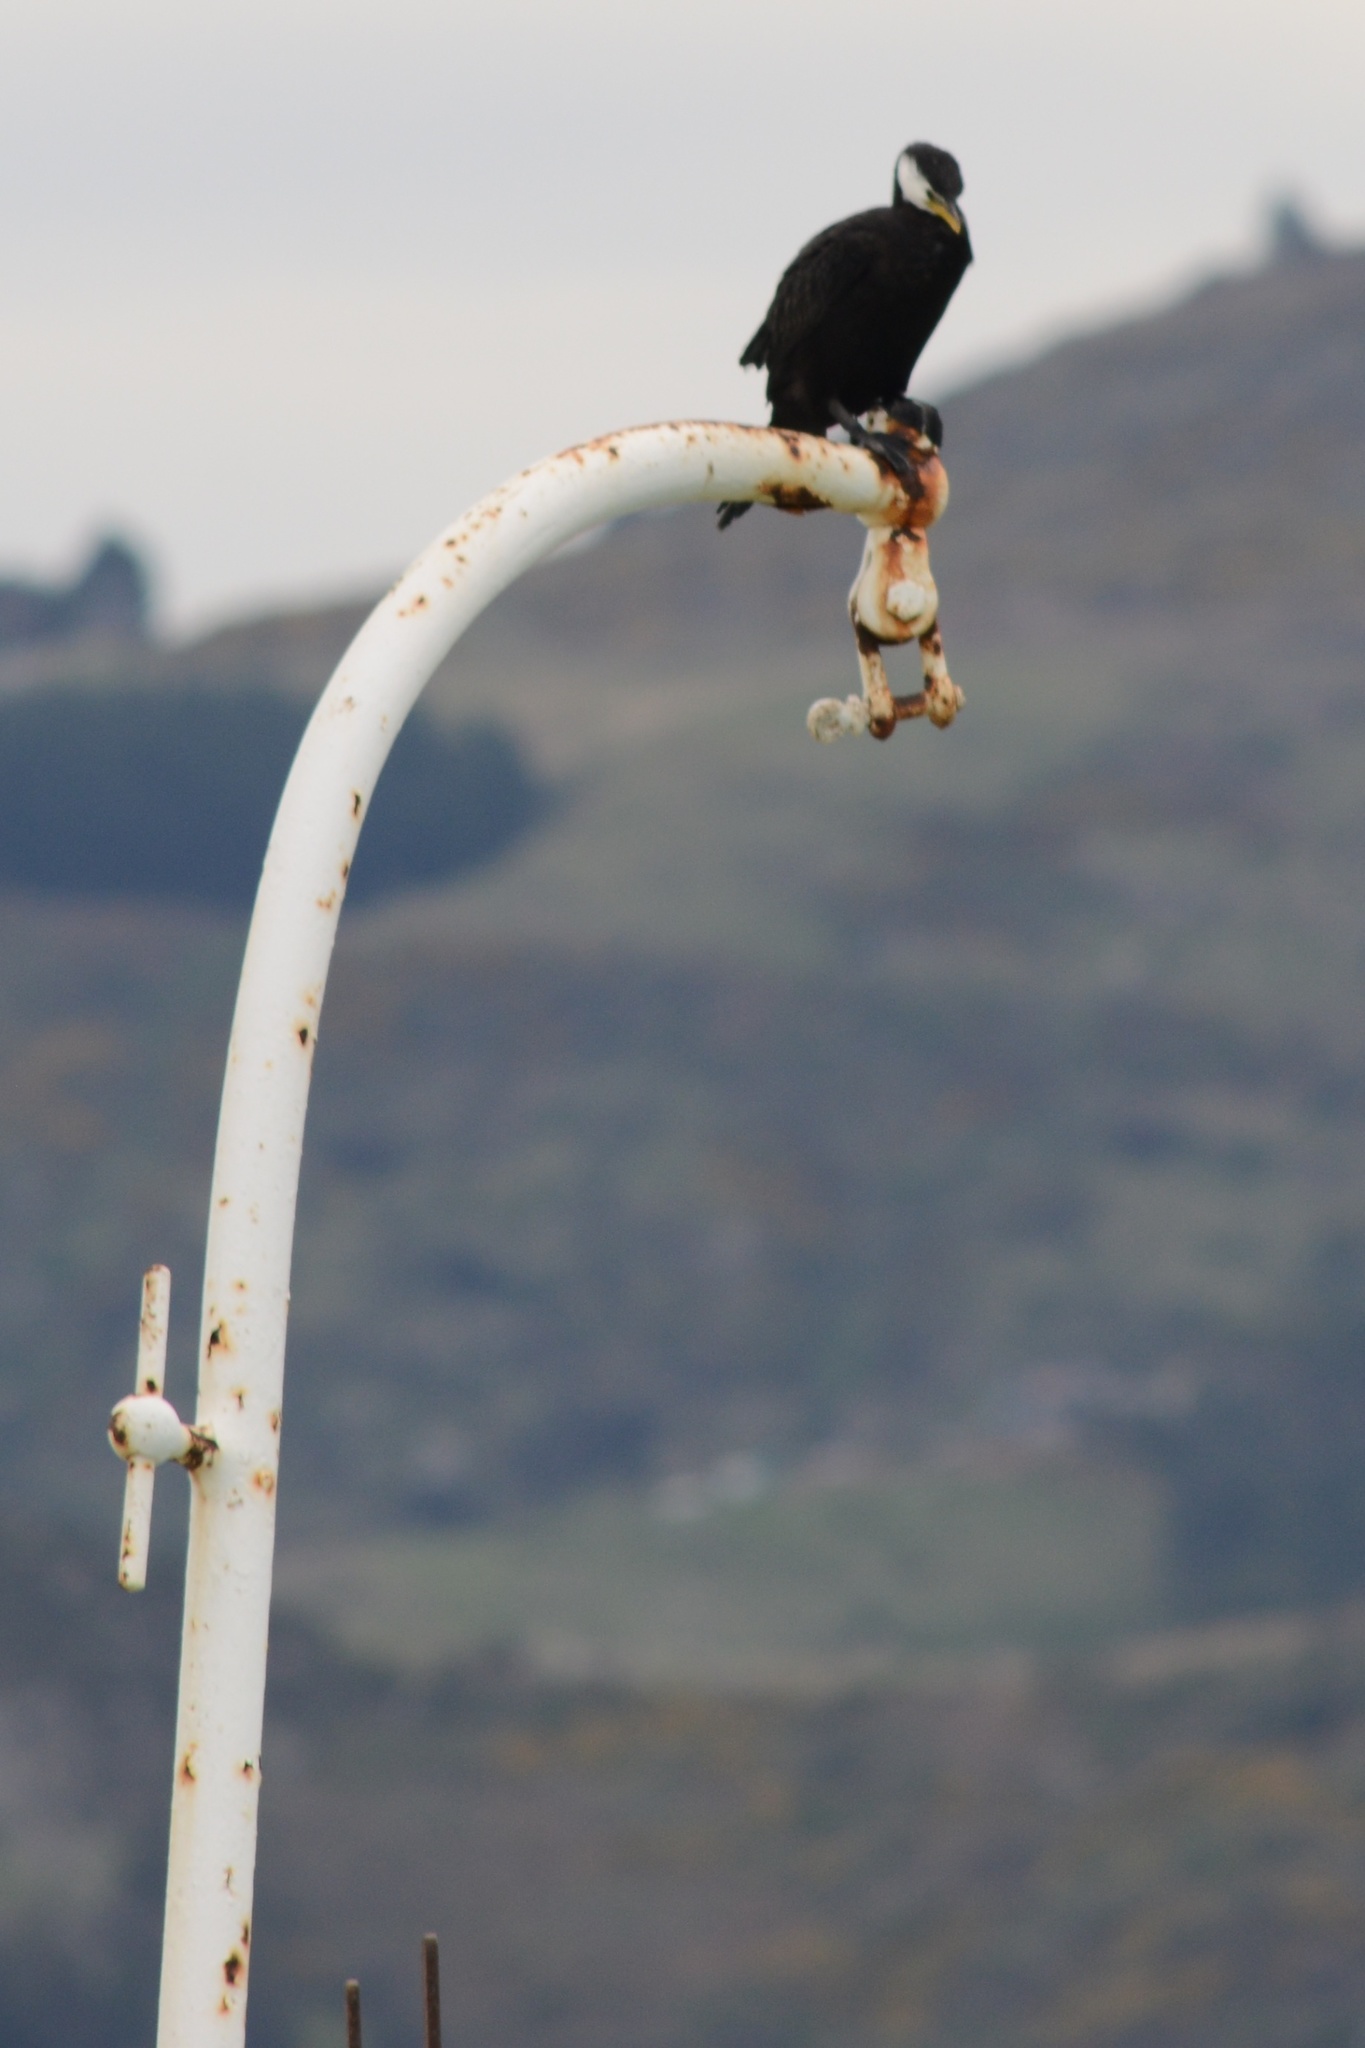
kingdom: Animalia
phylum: Chordata
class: Aves
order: Suliformes
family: Phalacrocoracidae
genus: Microcarbo
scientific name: Microcarbo melanoleucos
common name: Little pied cormorant
